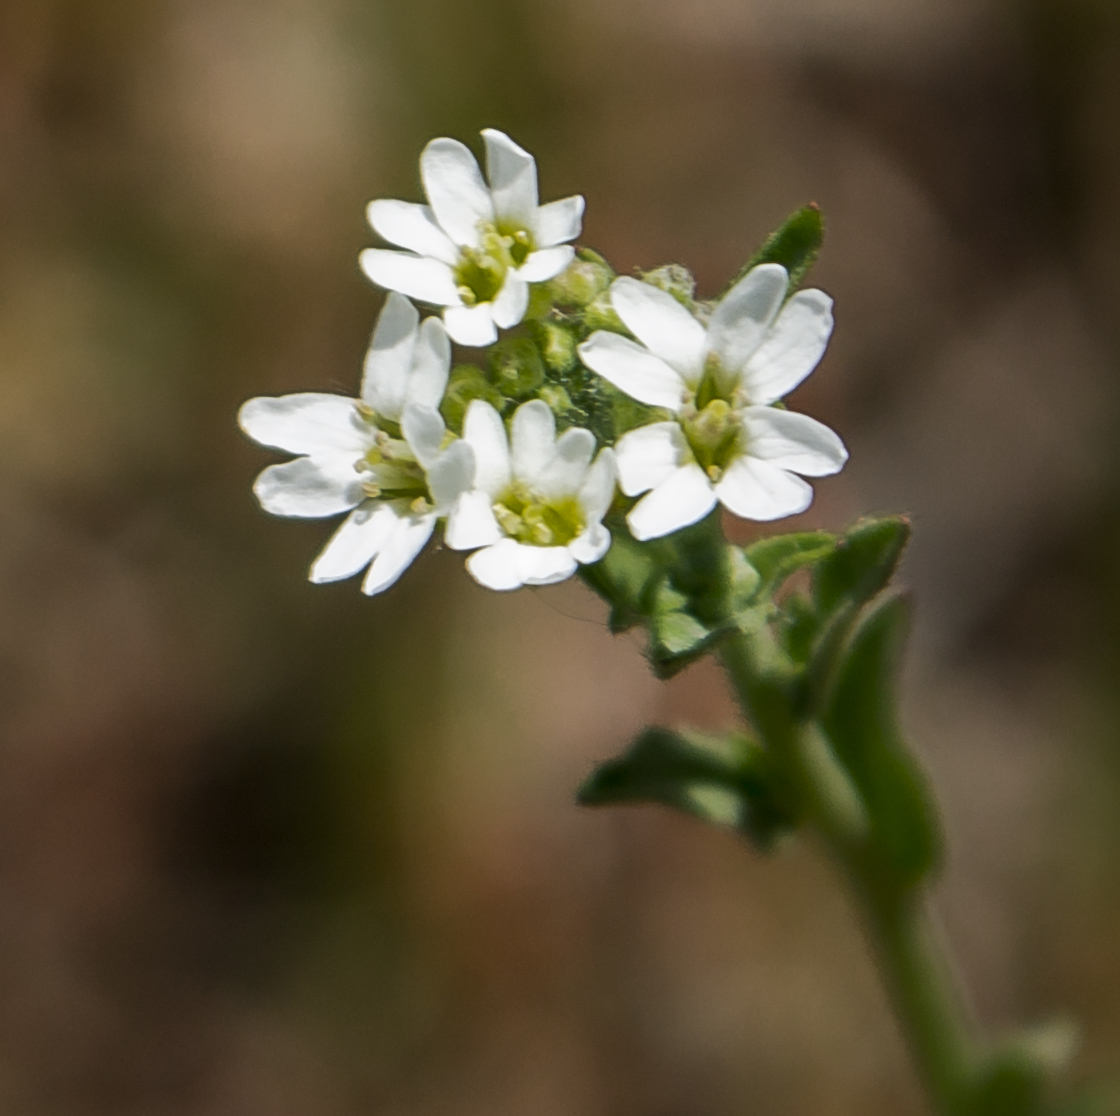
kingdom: Plantae
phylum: Tracheophyta
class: Magnoliopsida
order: Brassicales
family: Brassicaceae
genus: Berteroa
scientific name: Berteroa incana
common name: Hoary alison
